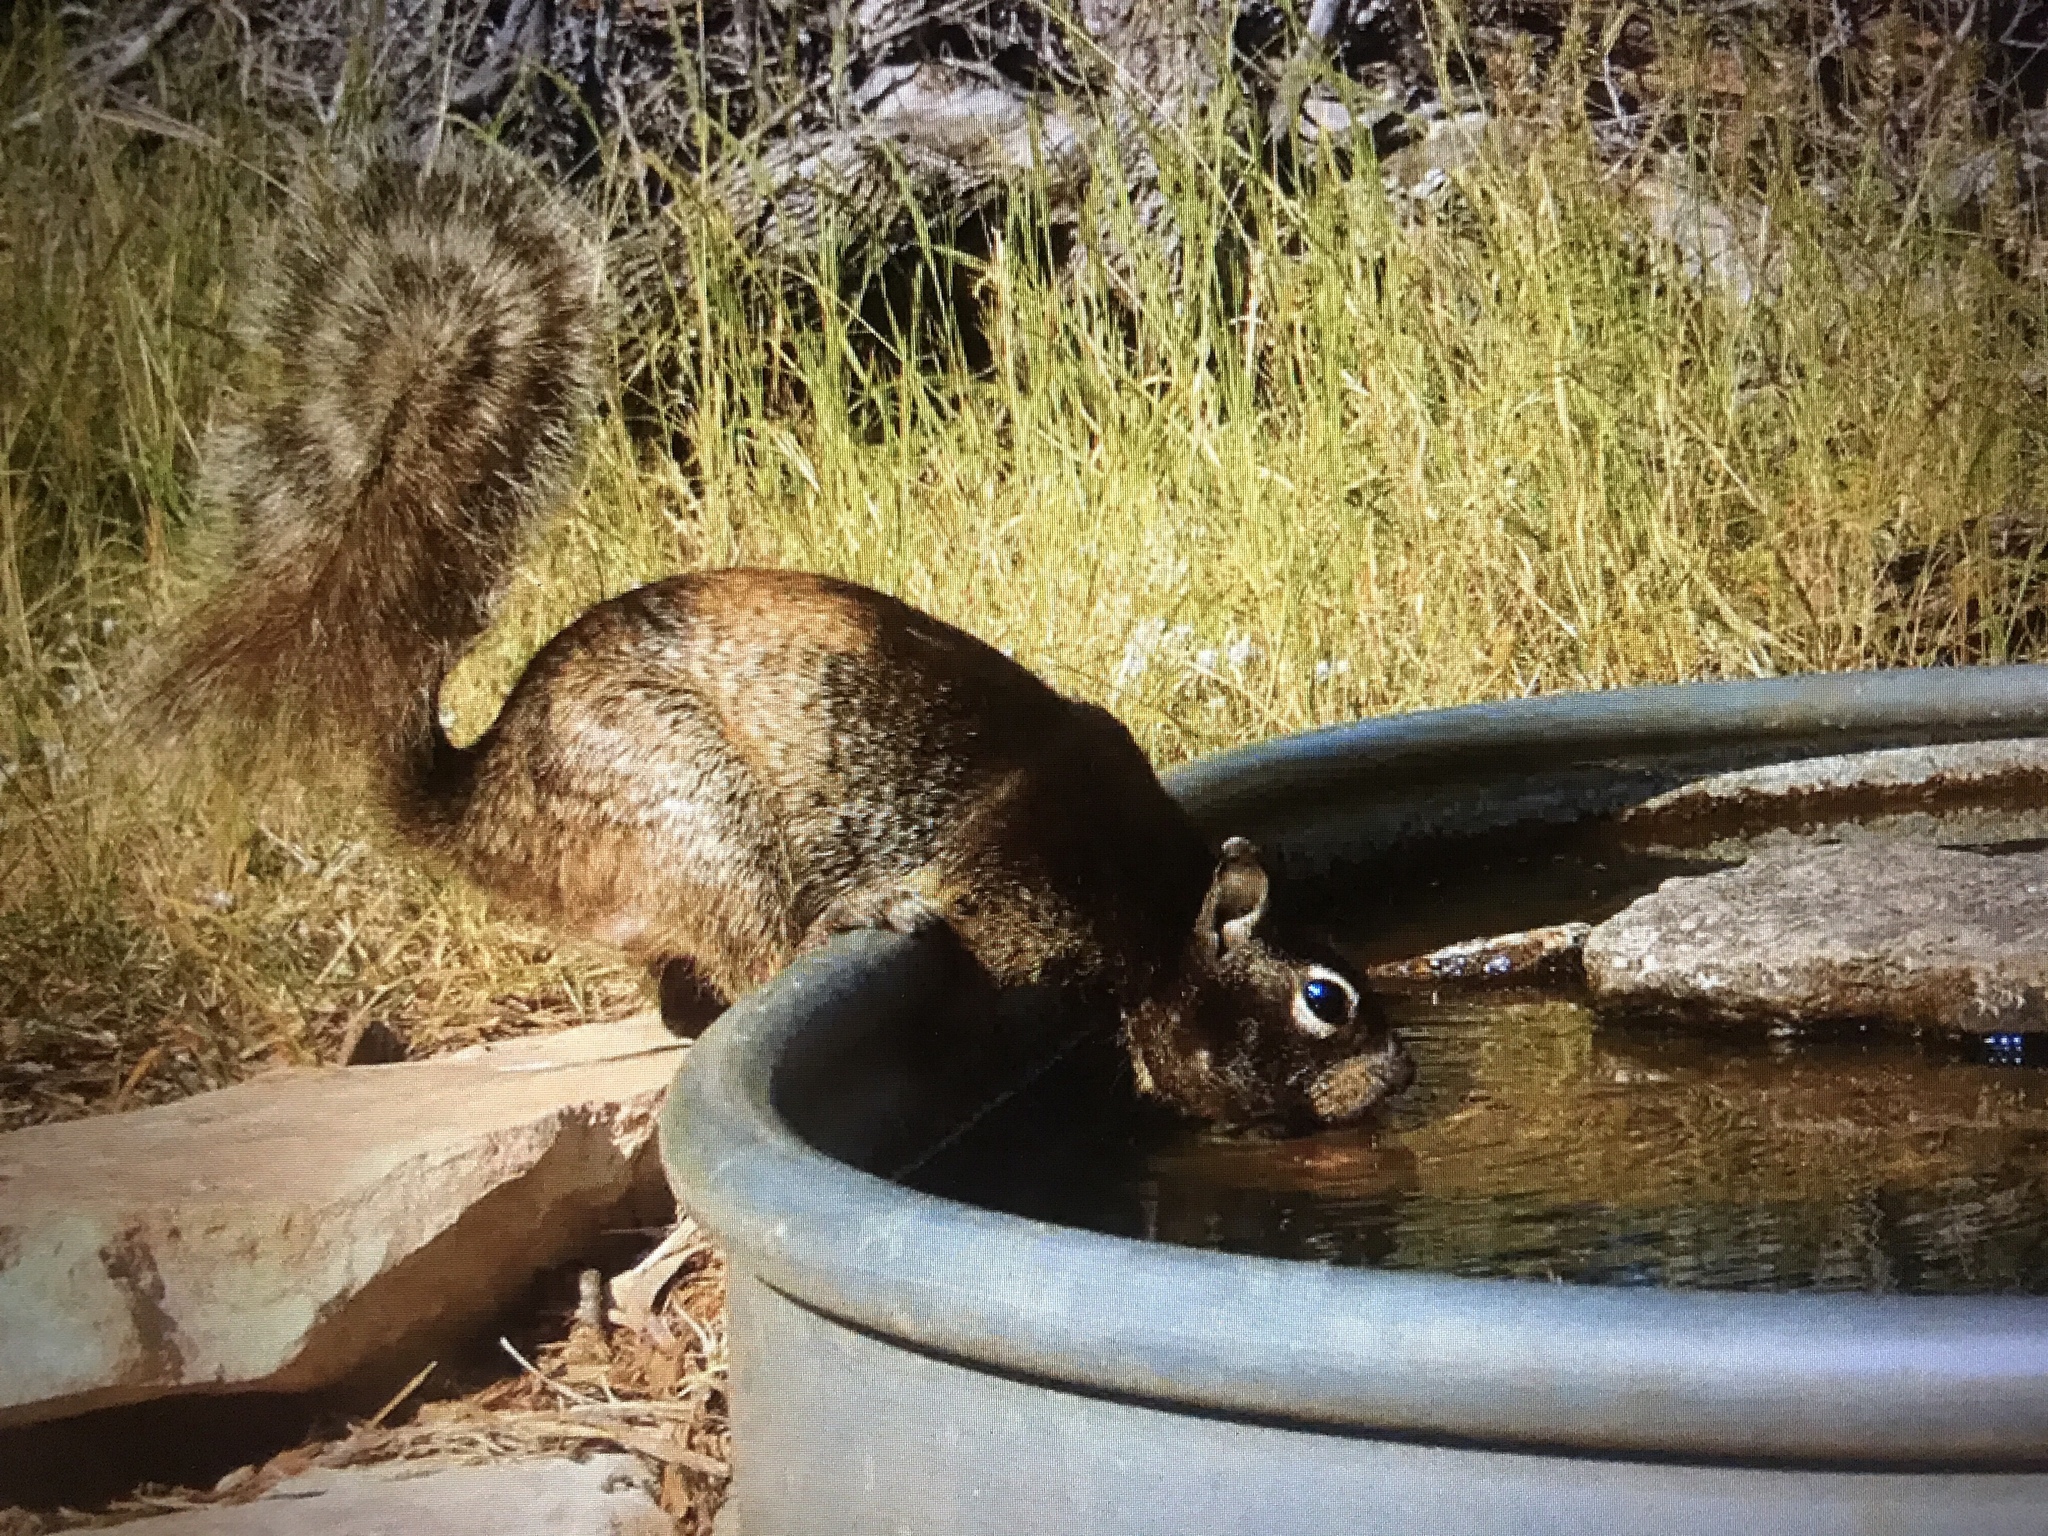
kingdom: Animalia
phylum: Chordata
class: Mammalia
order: Rodentia
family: Sciuridae
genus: Otospermophilus
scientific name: Otospermophilus variegatus
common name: Rock squirrel
